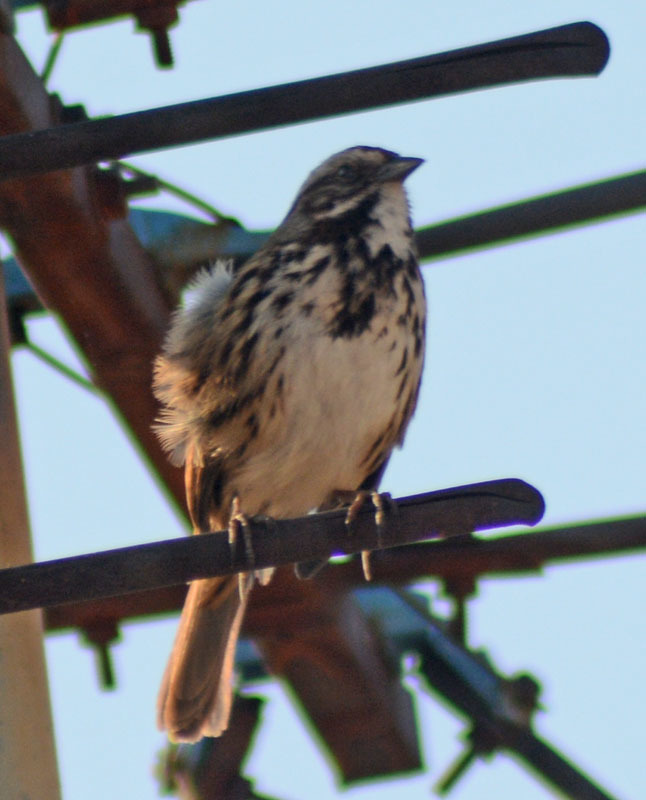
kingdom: Animalia
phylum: Chordata
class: Aves
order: Passeriformes
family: Passerellidae
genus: Melospiza
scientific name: Melospiza melodia
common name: Song sparrow
